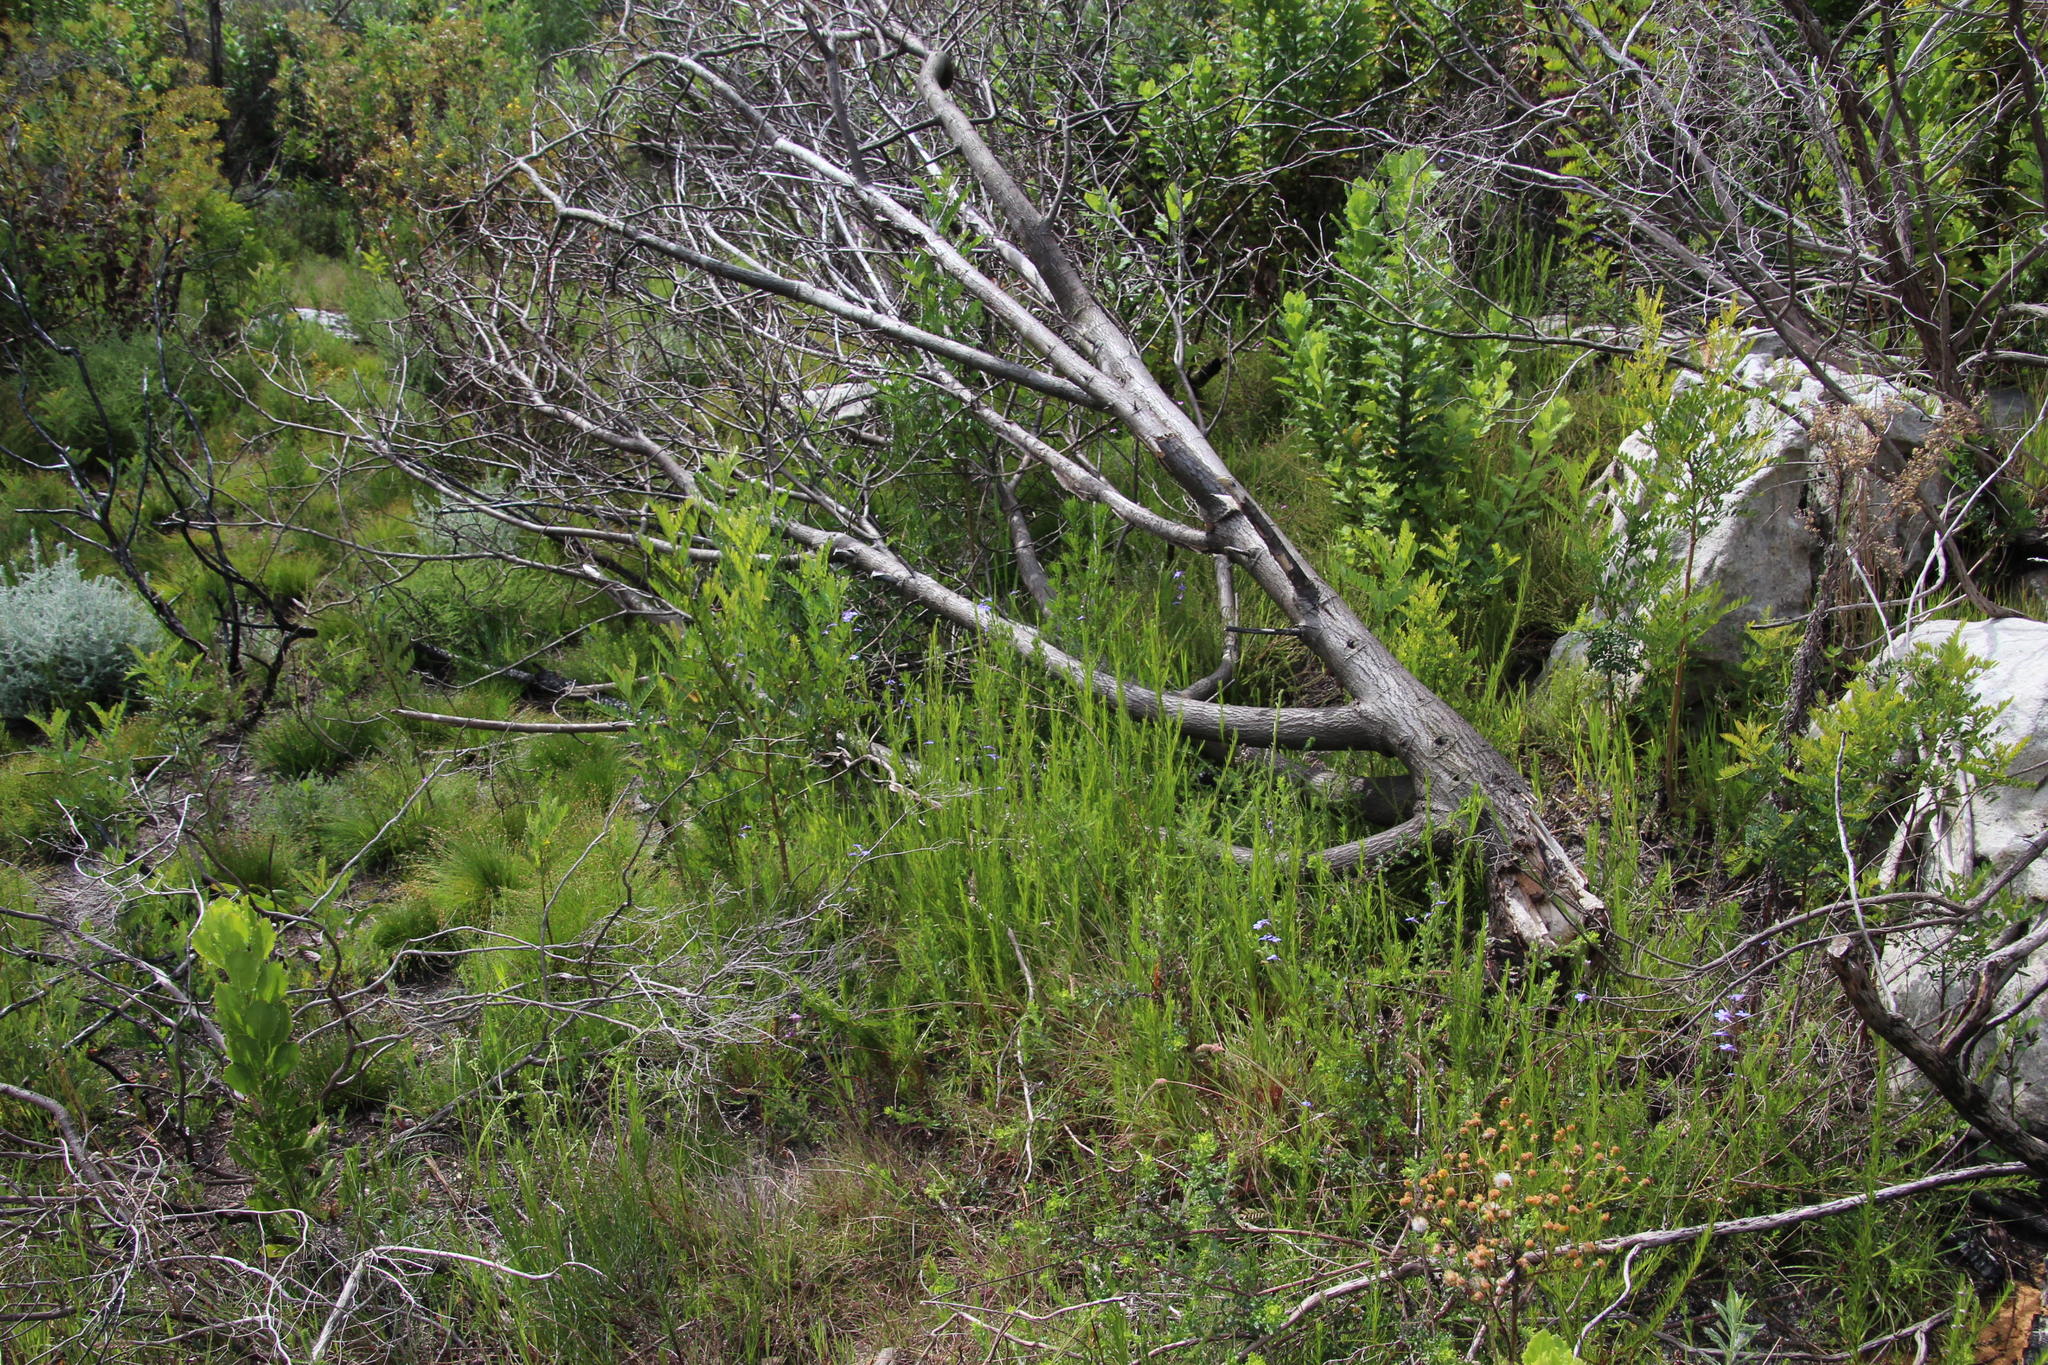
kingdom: Plantae
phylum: Tracheophyta
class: Magnoliopsida
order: Asterales
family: Campanulaceae
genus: Lobelia
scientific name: Lobelia pinifolia
